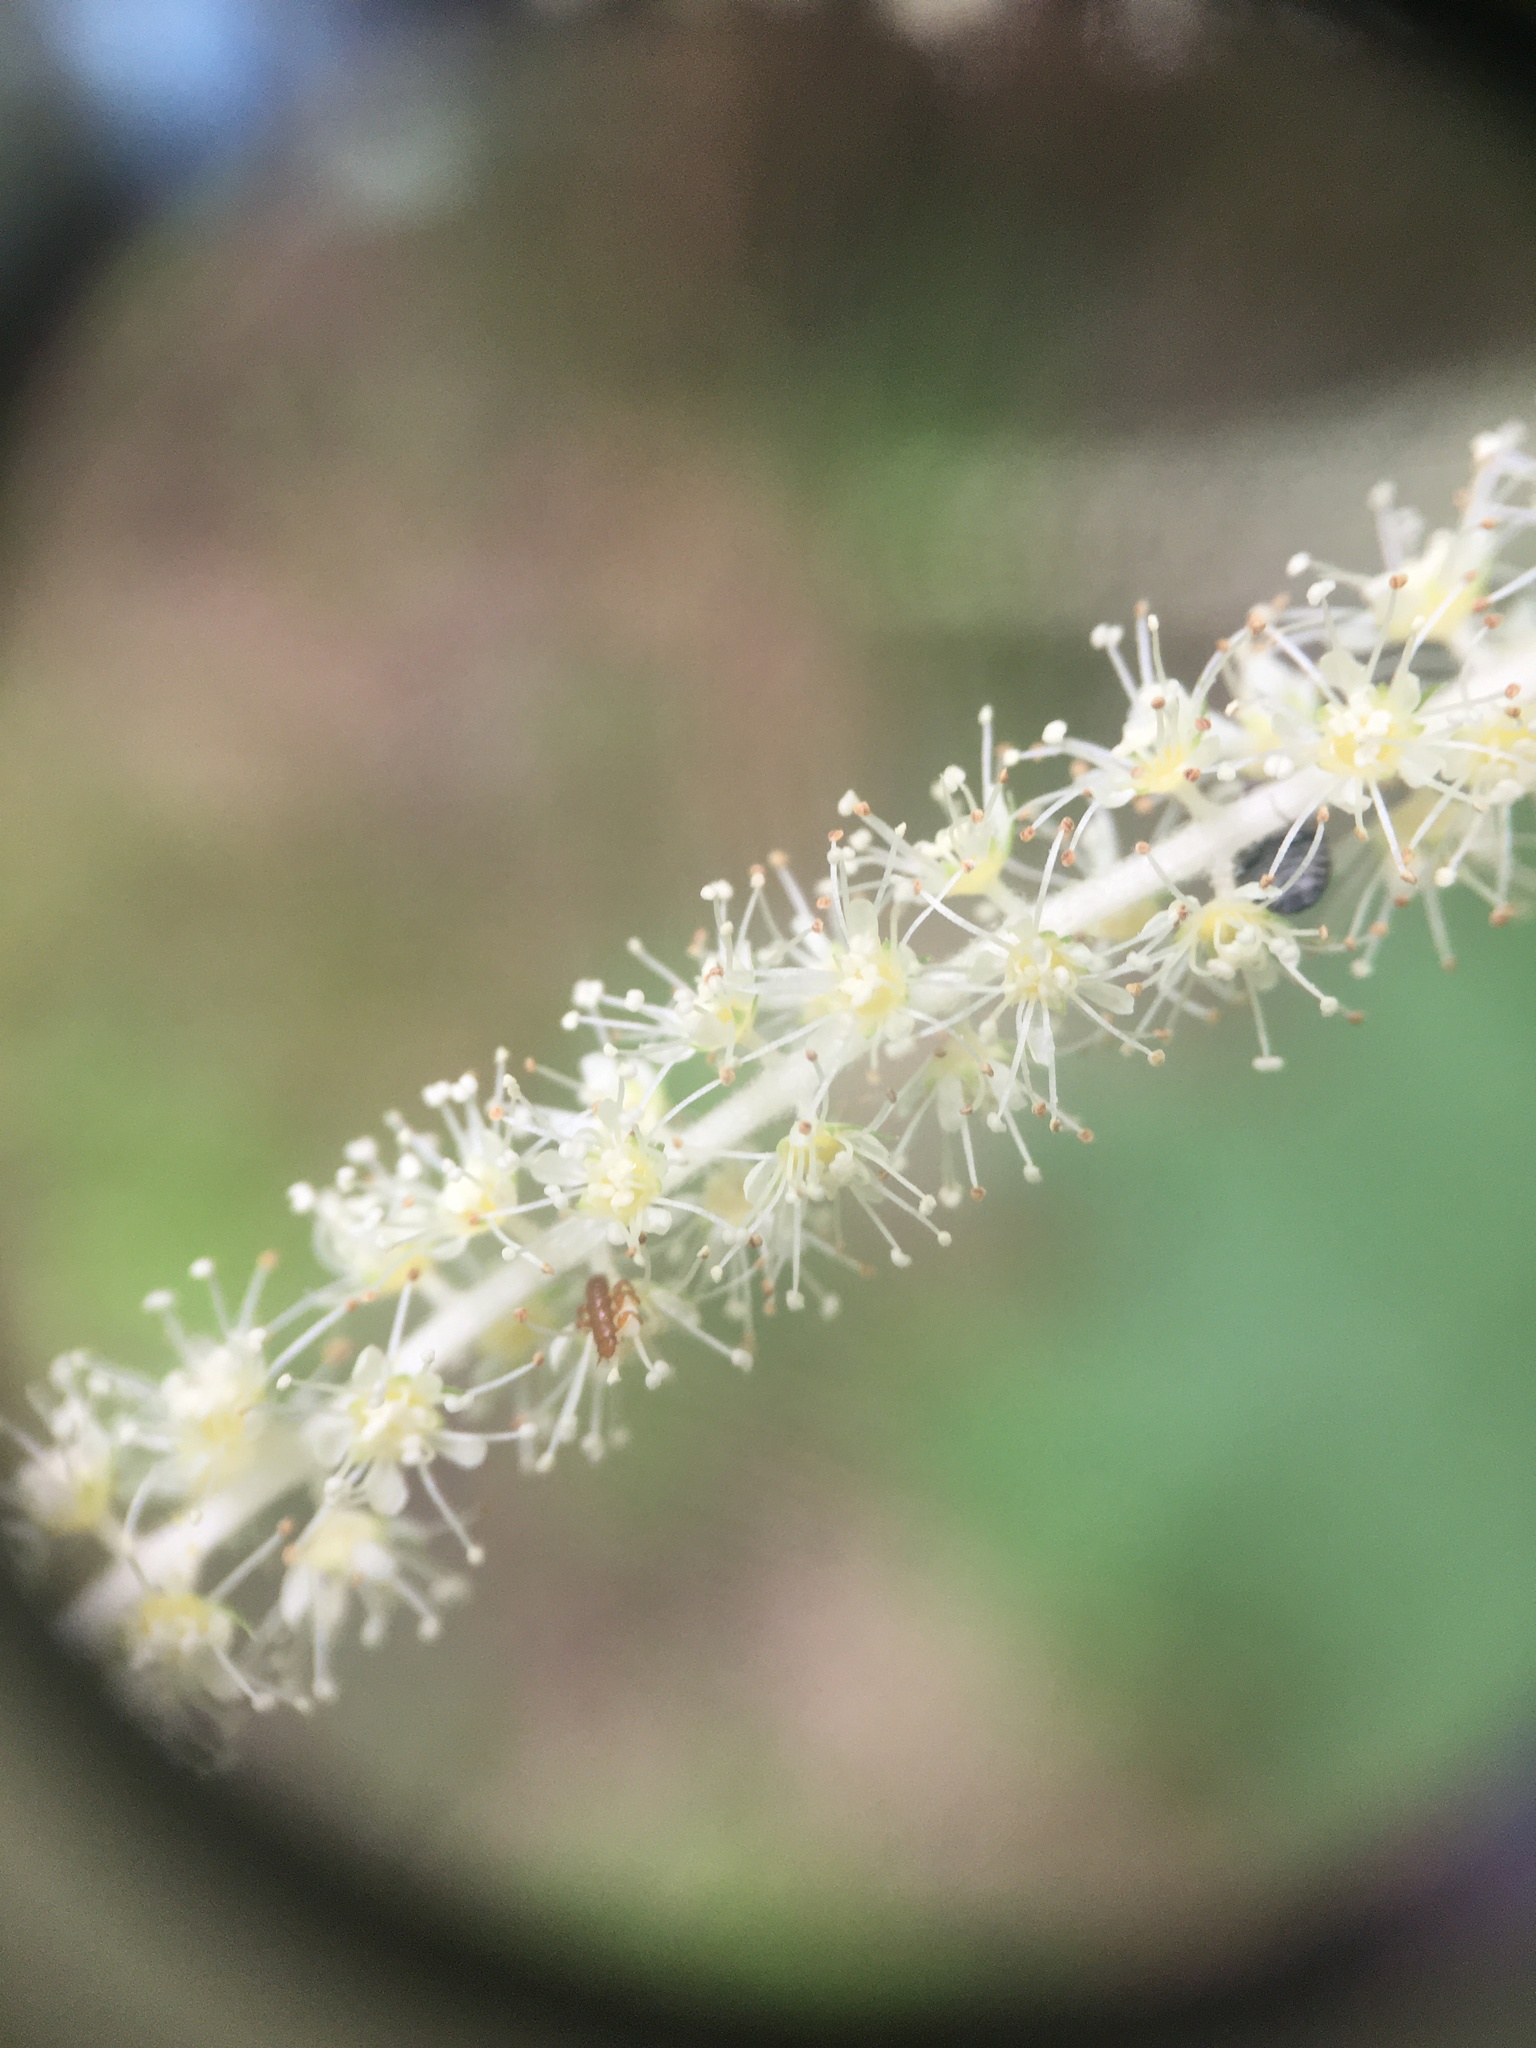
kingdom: Plantae
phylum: Tracheophyta
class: Magnoliopsida
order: Rosales
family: Rosaceae
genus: Aruncus
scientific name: Aruncus dioicus
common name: Buck's-beard
